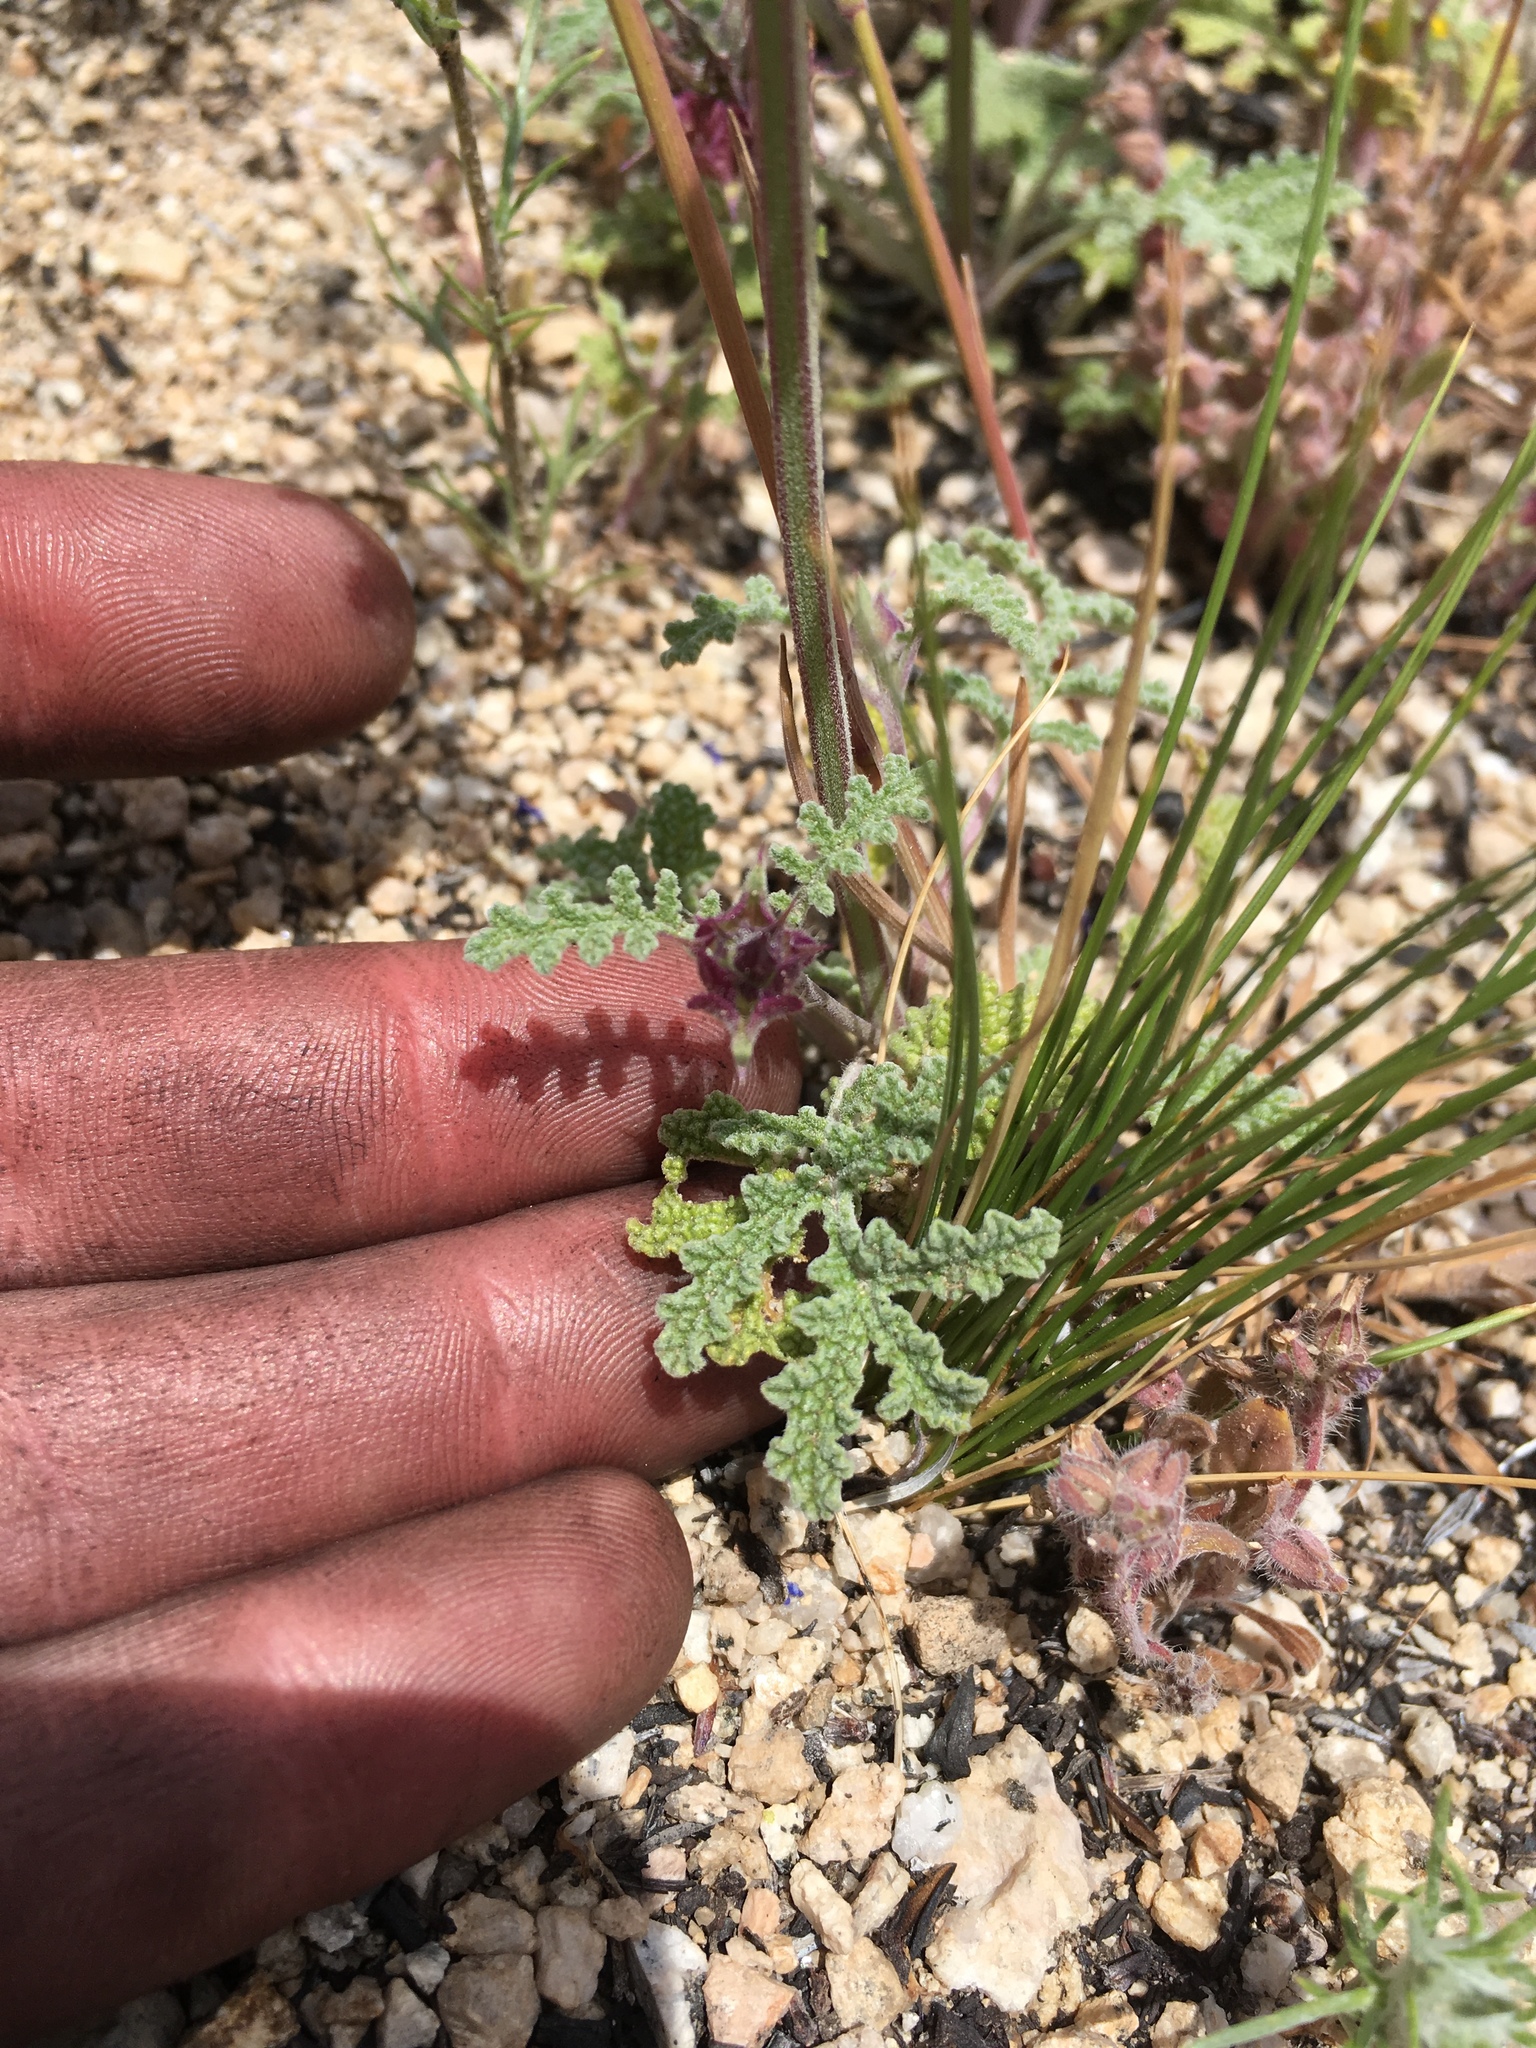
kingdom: Plantae
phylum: Tracheophyta
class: Magnoliopsida
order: Lamiales
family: Lamiaceae
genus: Salvia
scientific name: Salvia columbariae
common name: Chia
